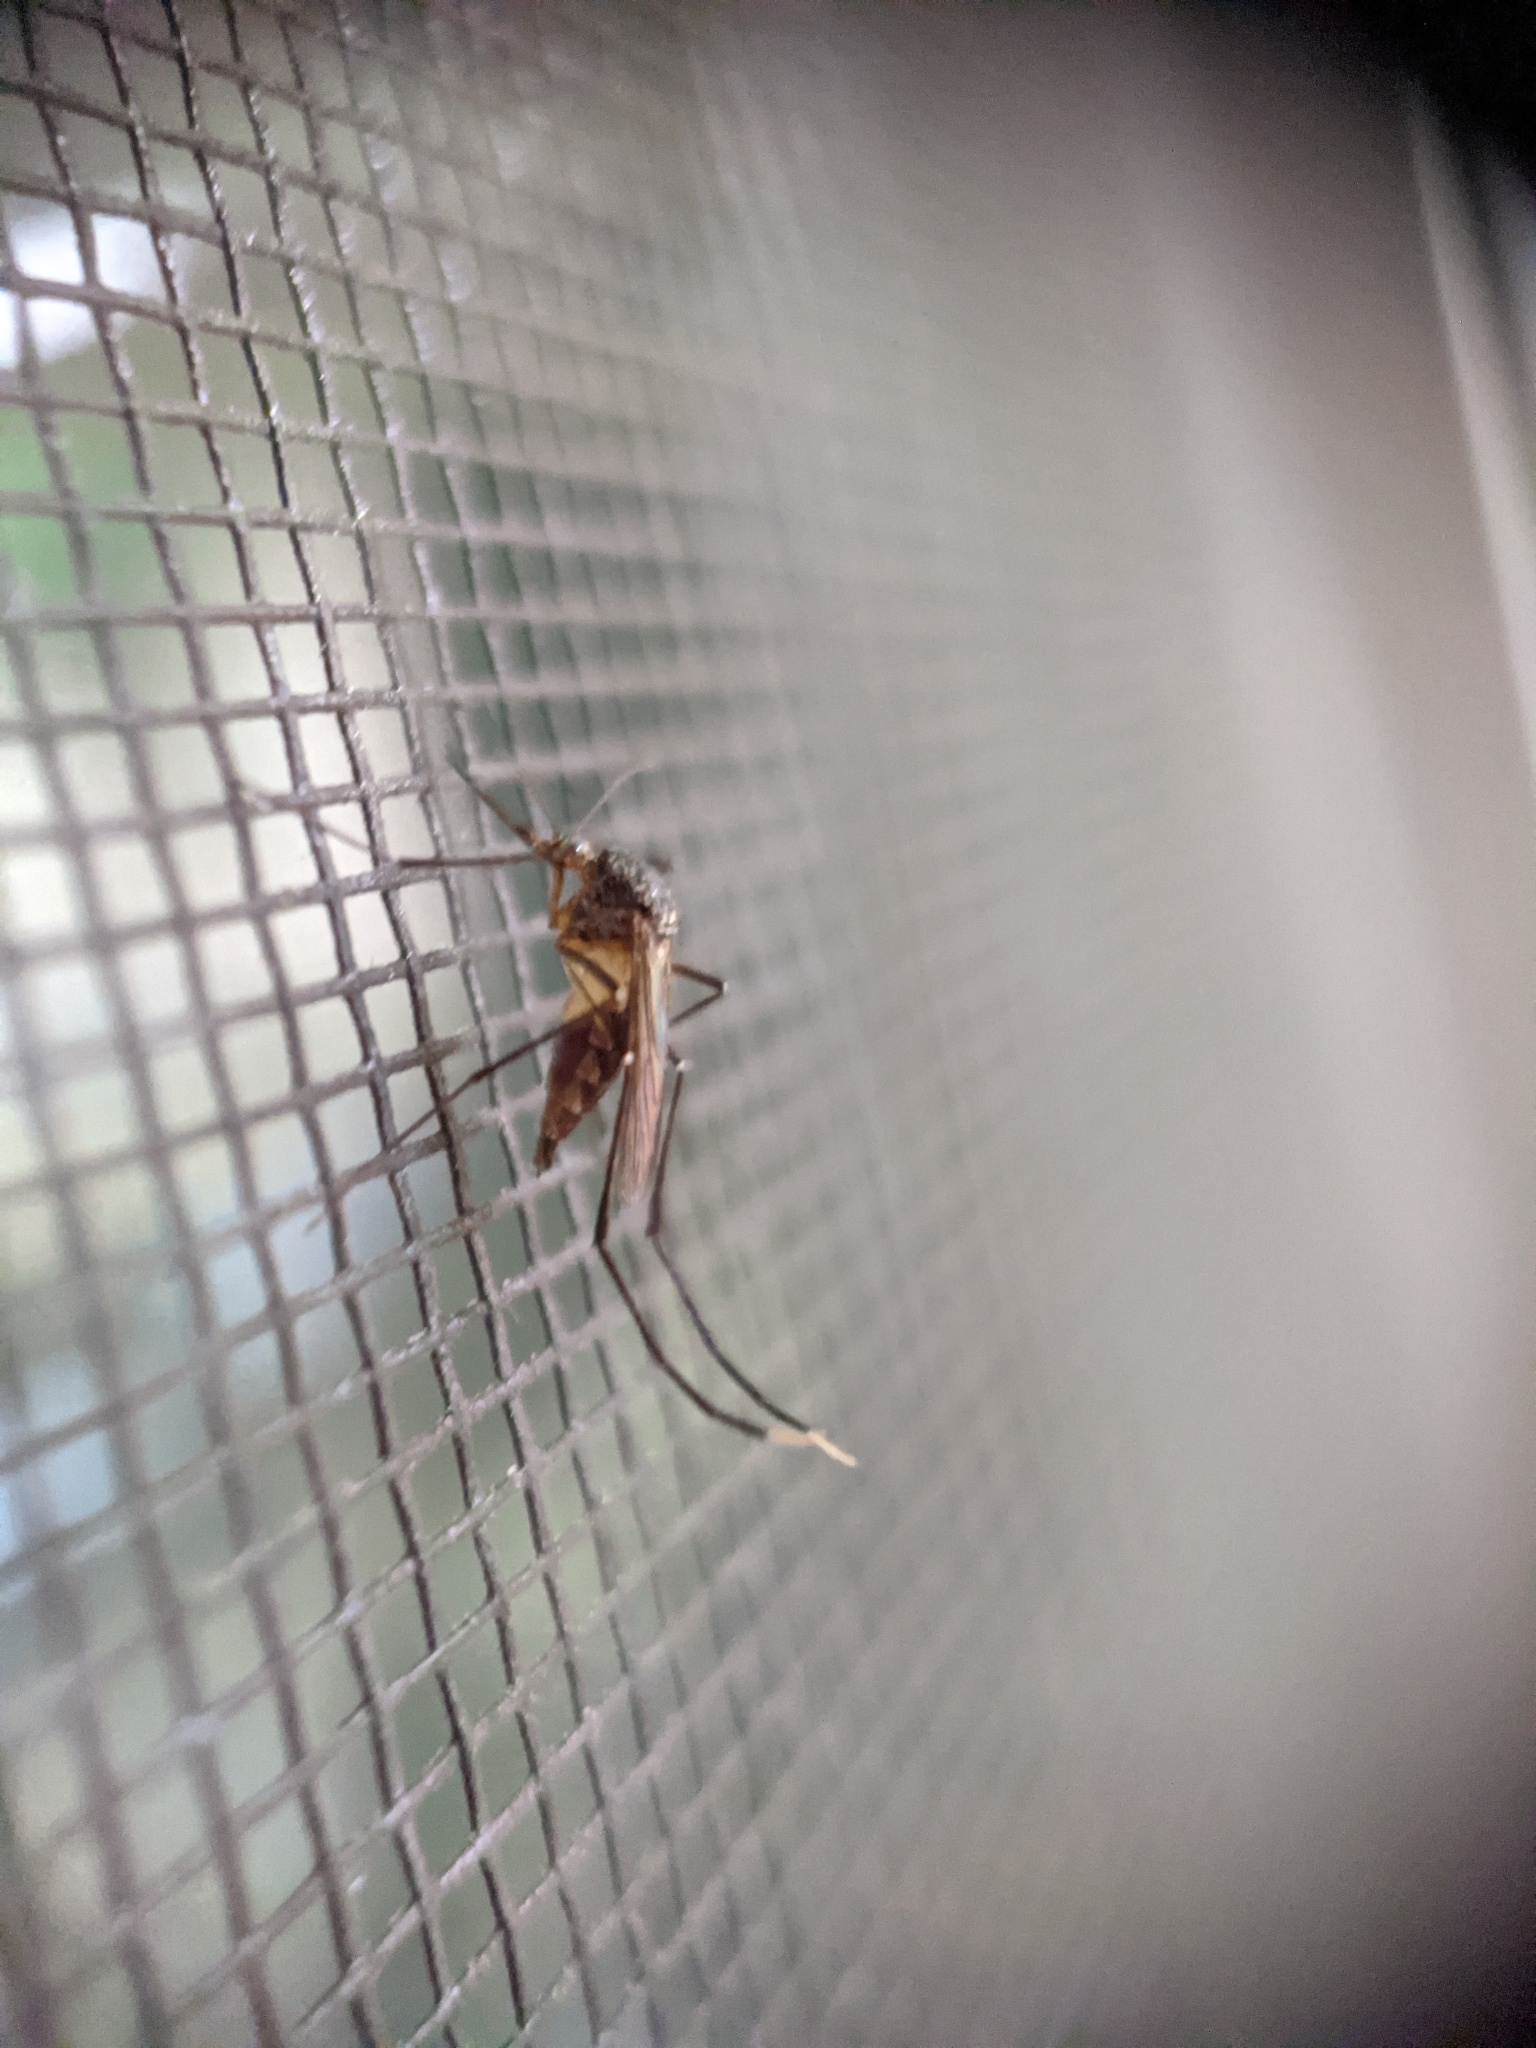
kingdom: Animalia
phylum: Arthropoda
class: Insecta
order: Diptera
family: Culicidae
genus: Psorophora
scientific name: Psorophora ferox
